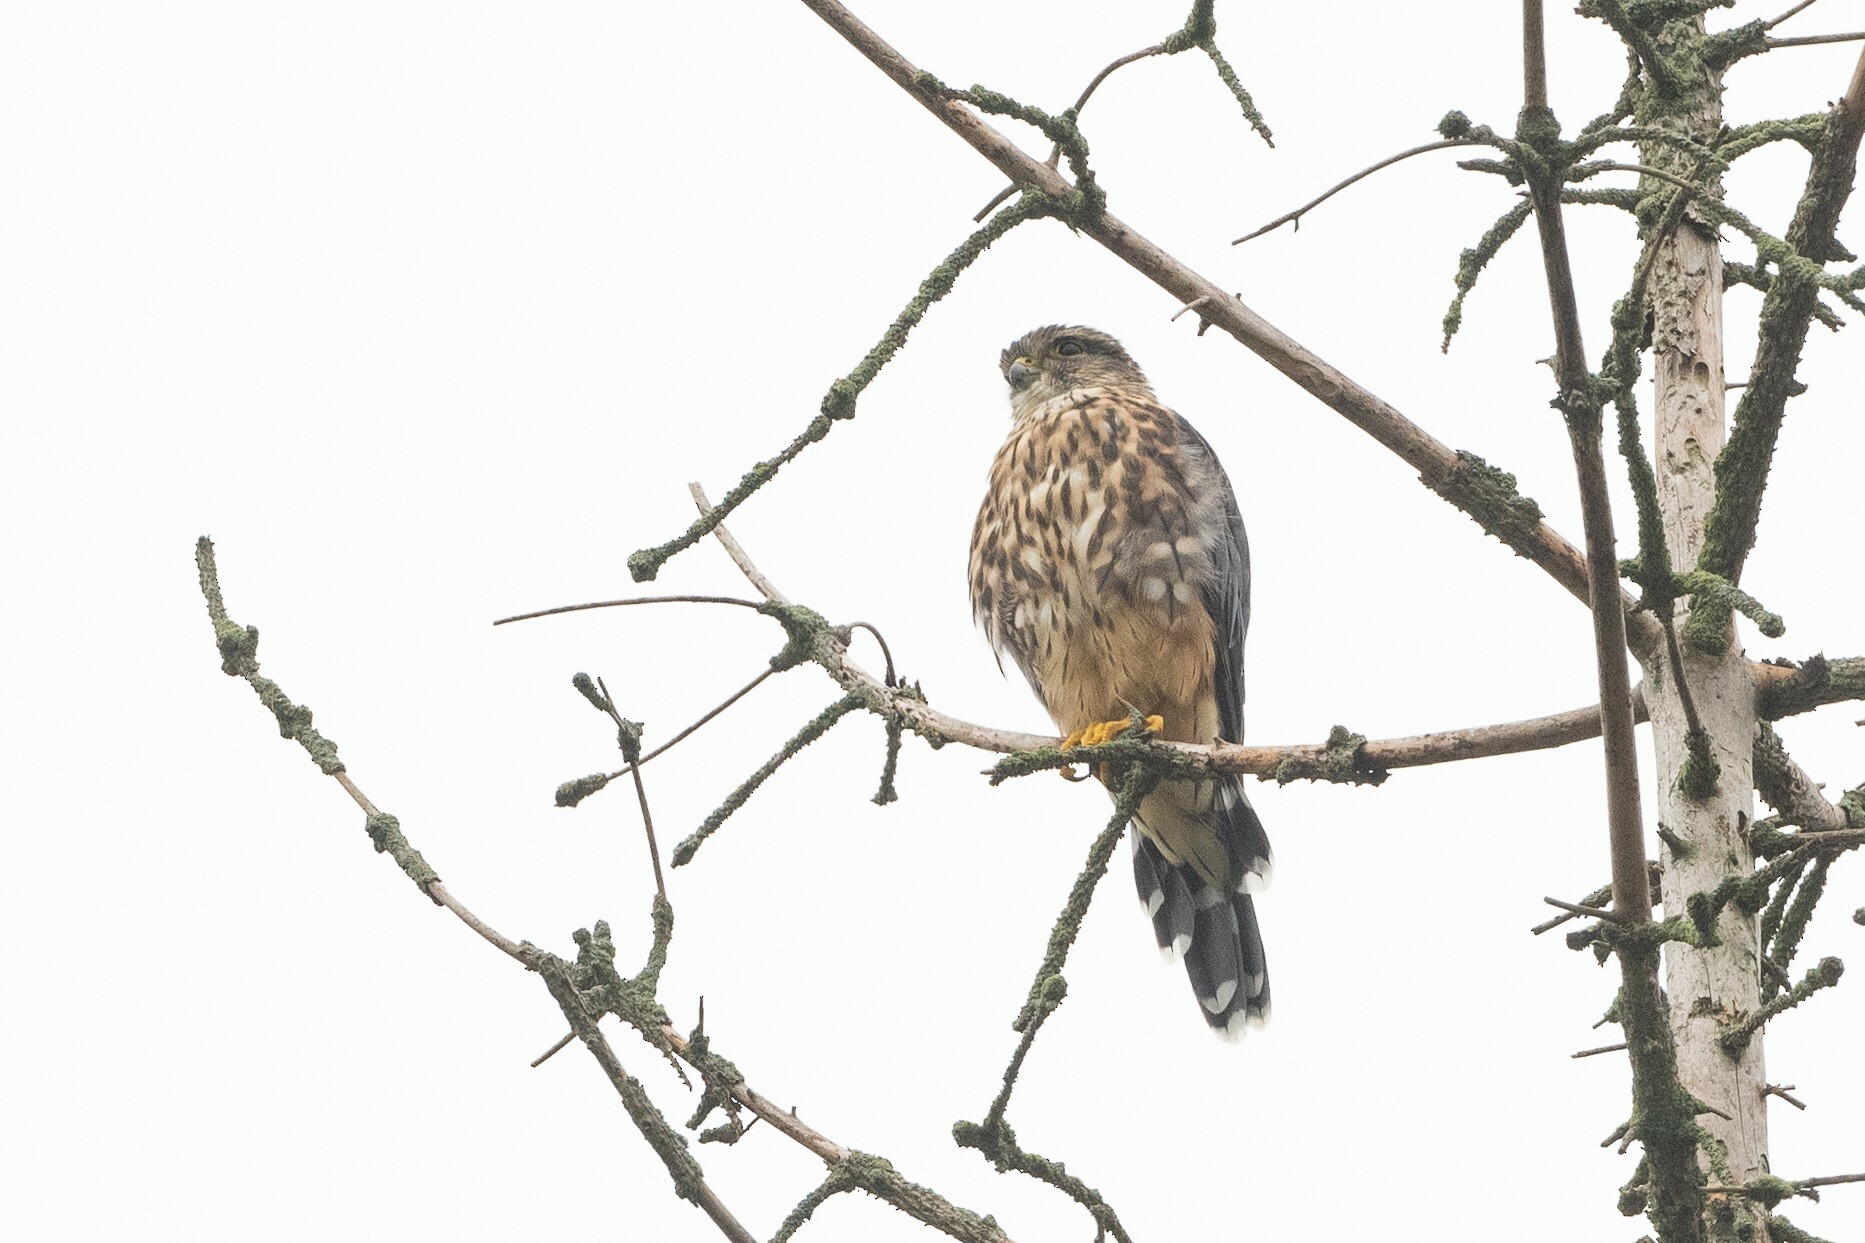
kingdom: Animalia
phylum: Chordata
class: Aves
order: Falconiformes
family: Falconidae
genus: Falco
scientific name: Falco columbarius
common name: Merlin
